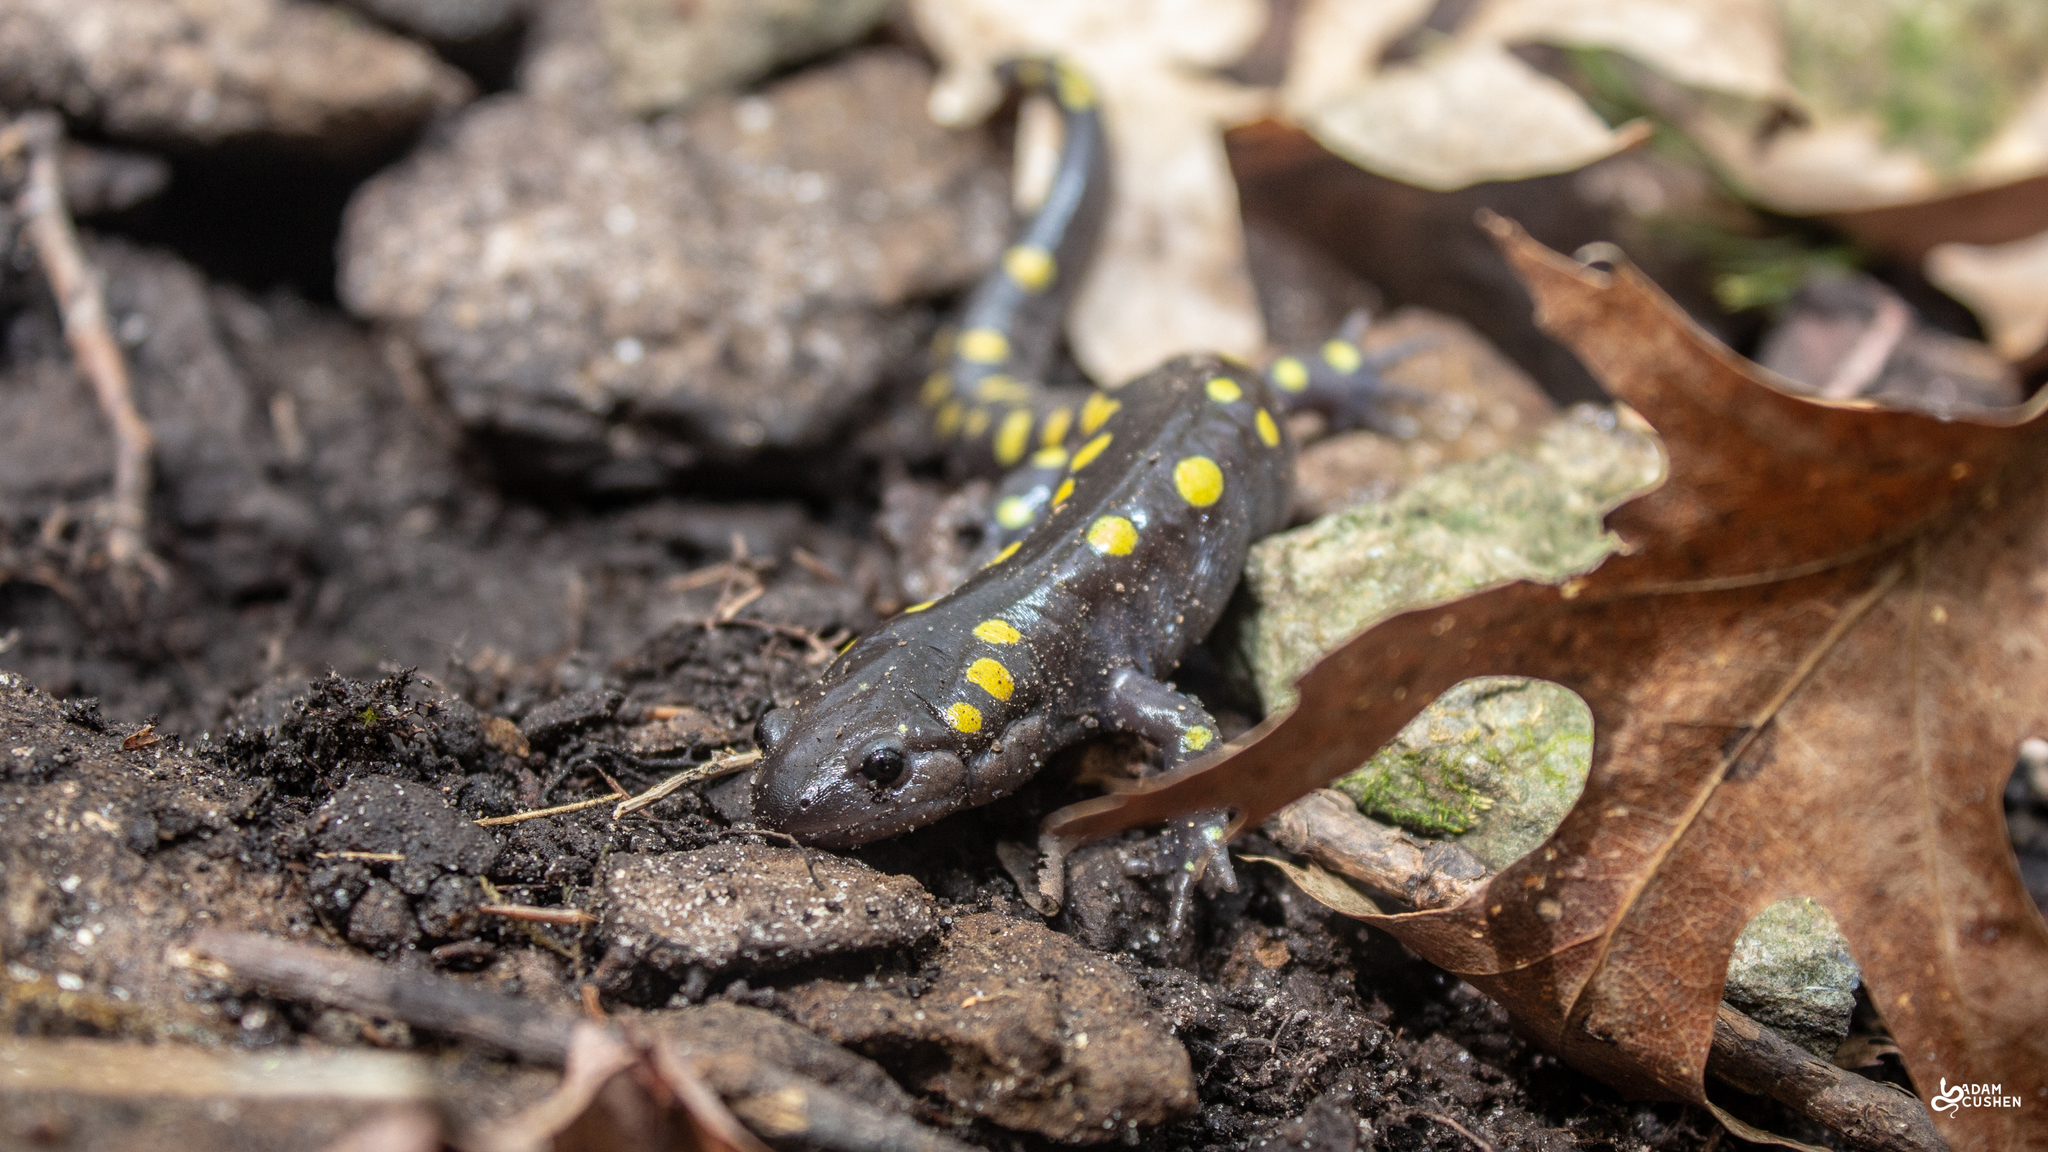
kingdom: Animalia
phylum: Chordata
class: Amphibia
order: Caudata
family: Ambystomatidae
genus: Ambystoma
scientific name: Ambystoma maculatum
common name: Spotted salamander
